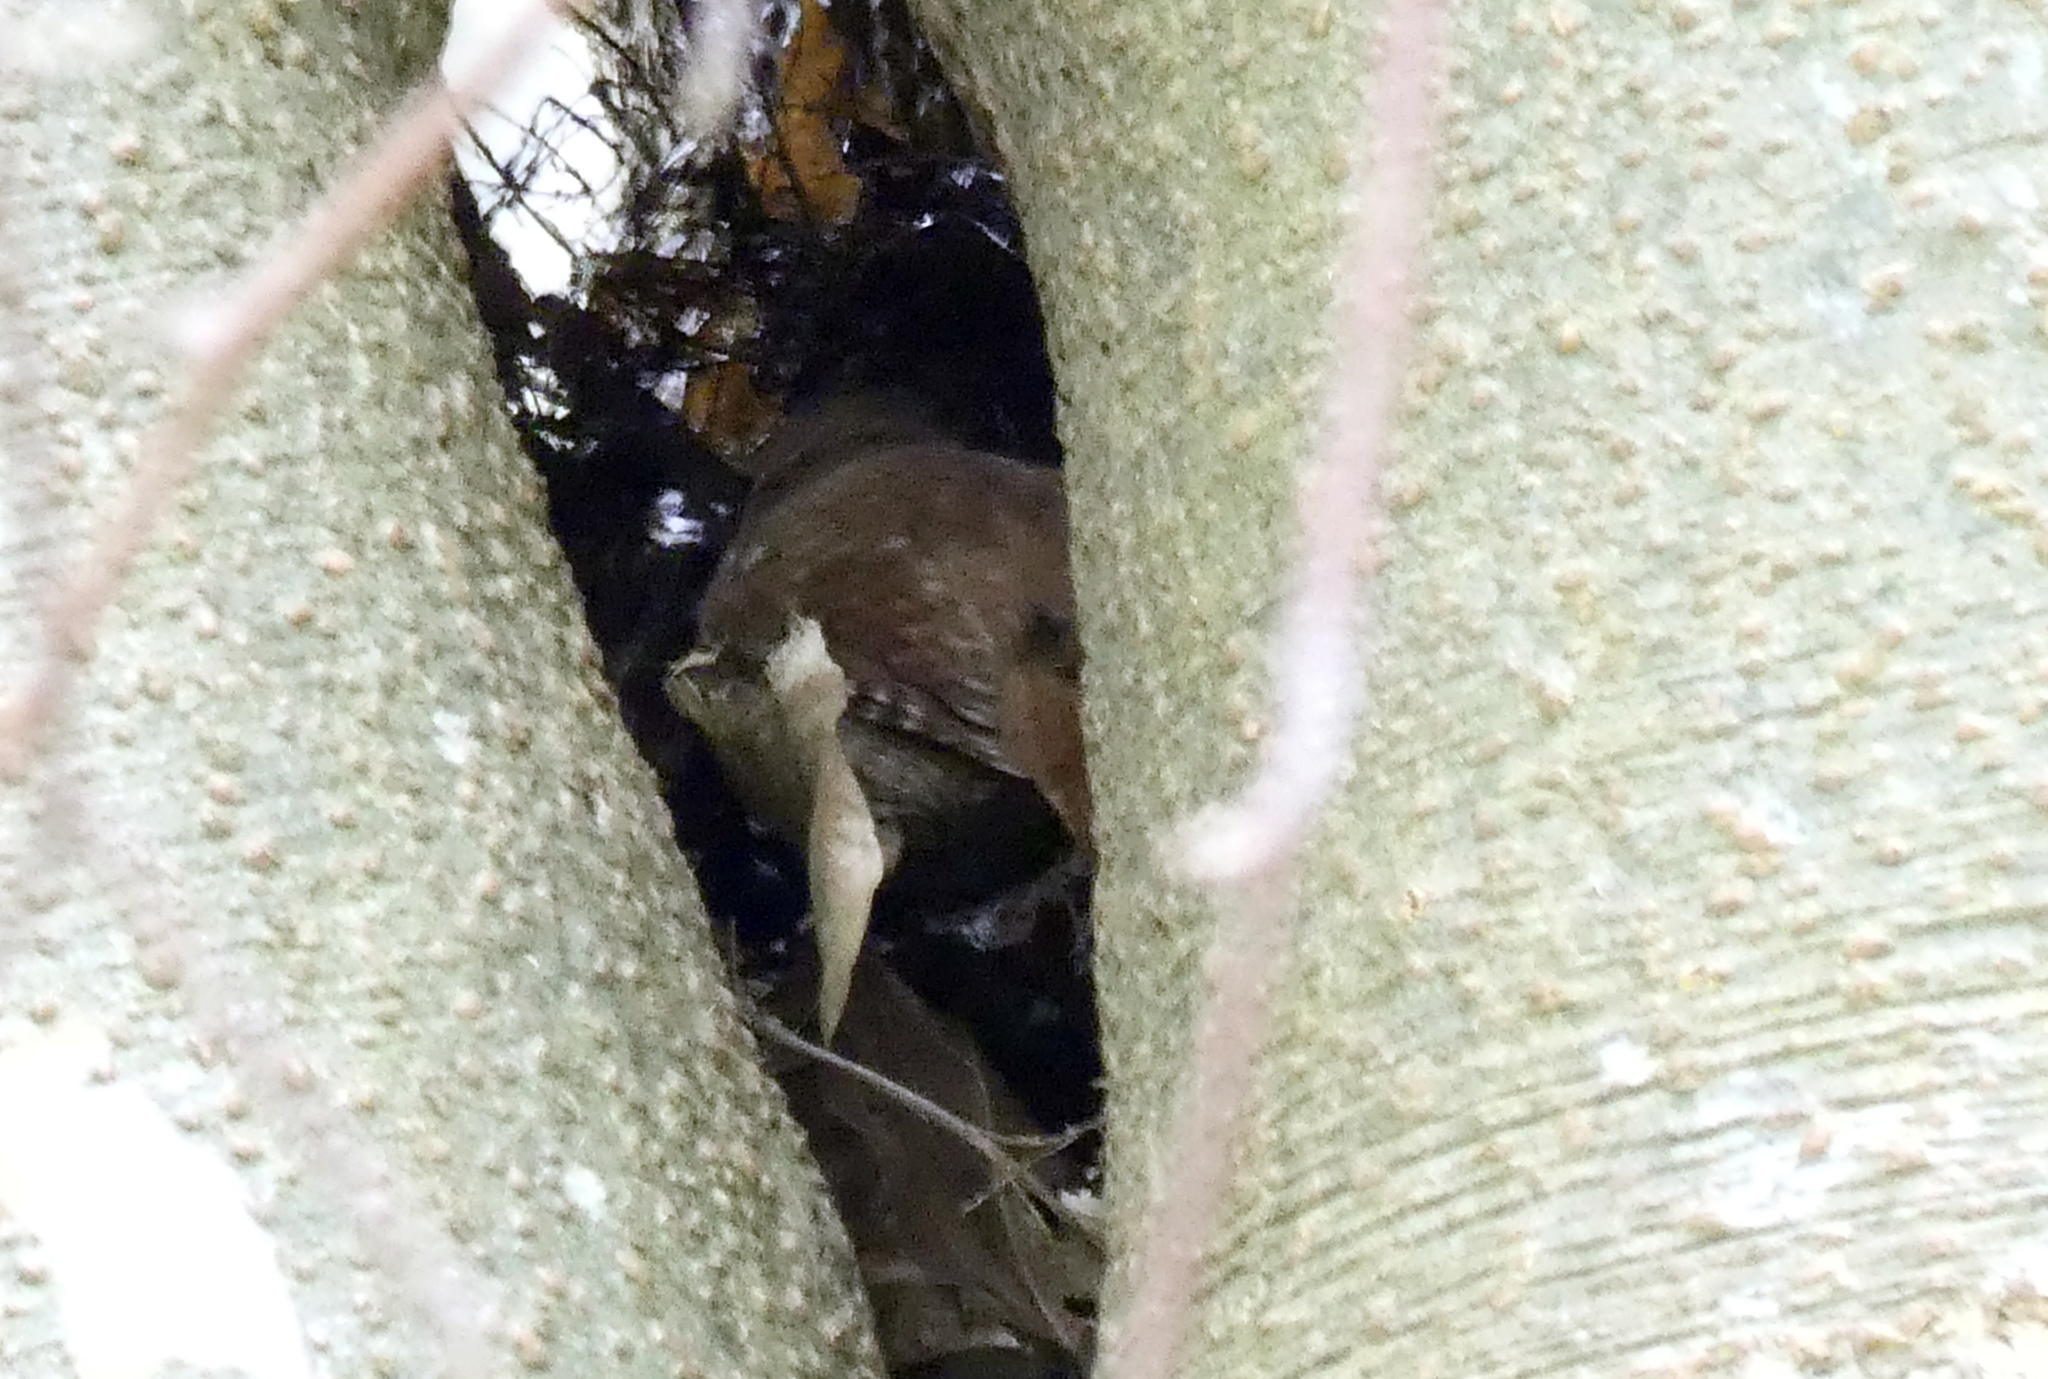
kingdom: Animalia
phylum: Chordata
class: Aves
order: Passeriformes
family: Troglodytidae
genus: Troglodytes
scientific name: Troglodytes troglodytes
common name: Eurasian wren
